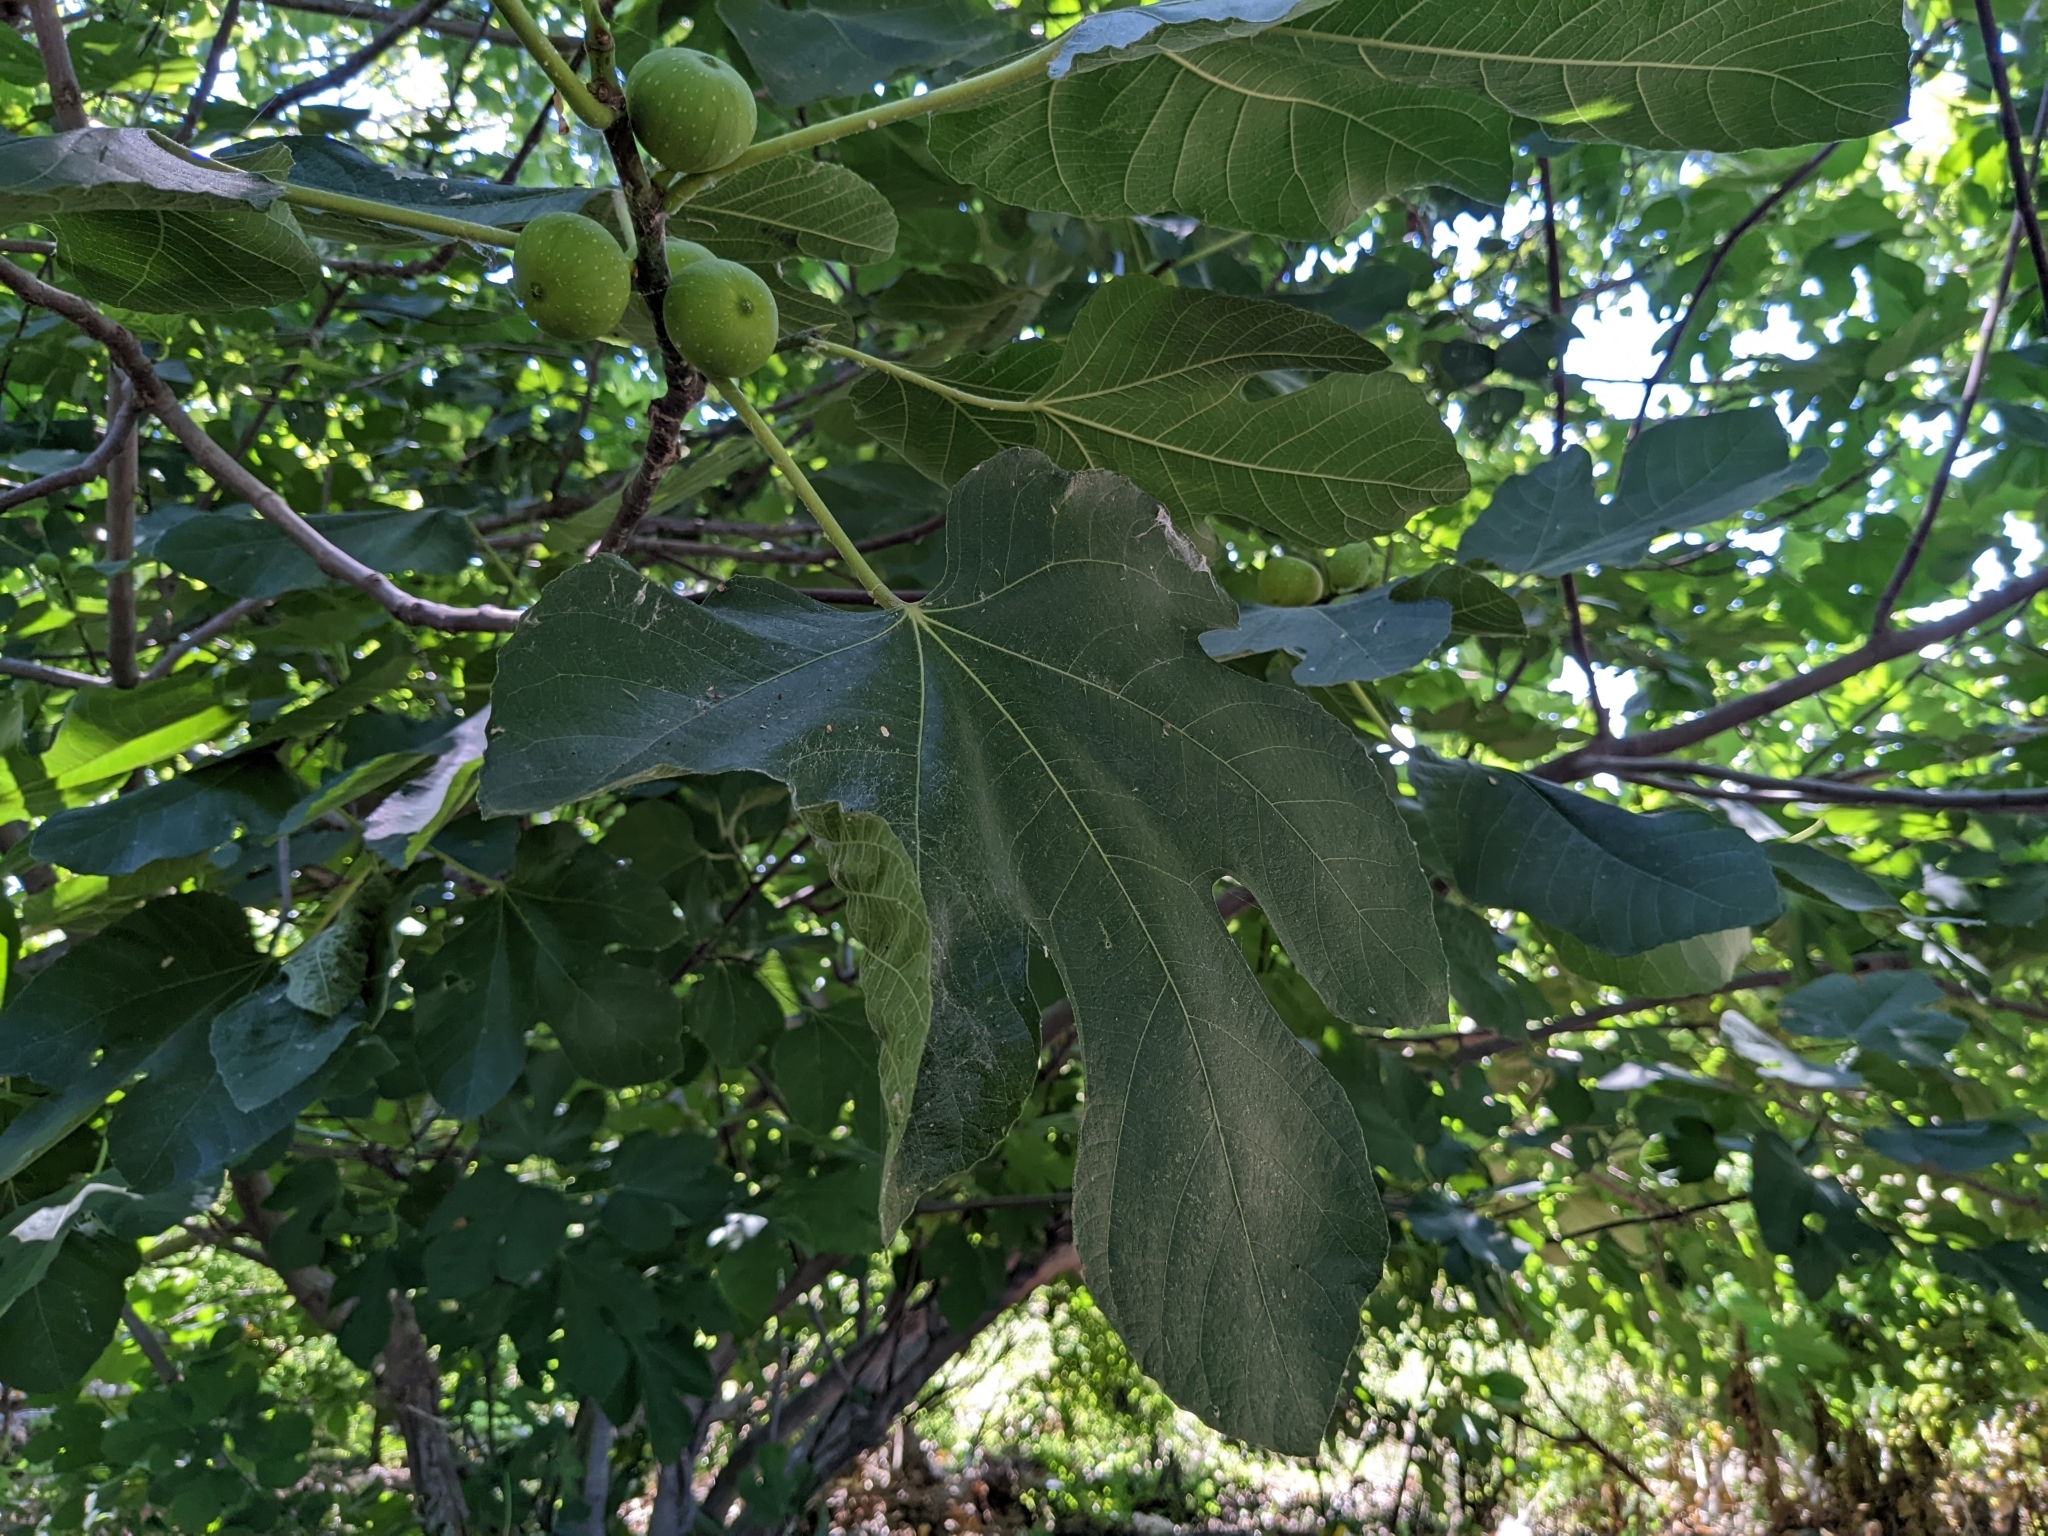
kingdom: Plantae
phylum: Tracheophyta
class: Magnoliopsida
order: Rosales
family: Moraceae
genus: Ficus
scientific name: Ficus carica
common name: Fig
